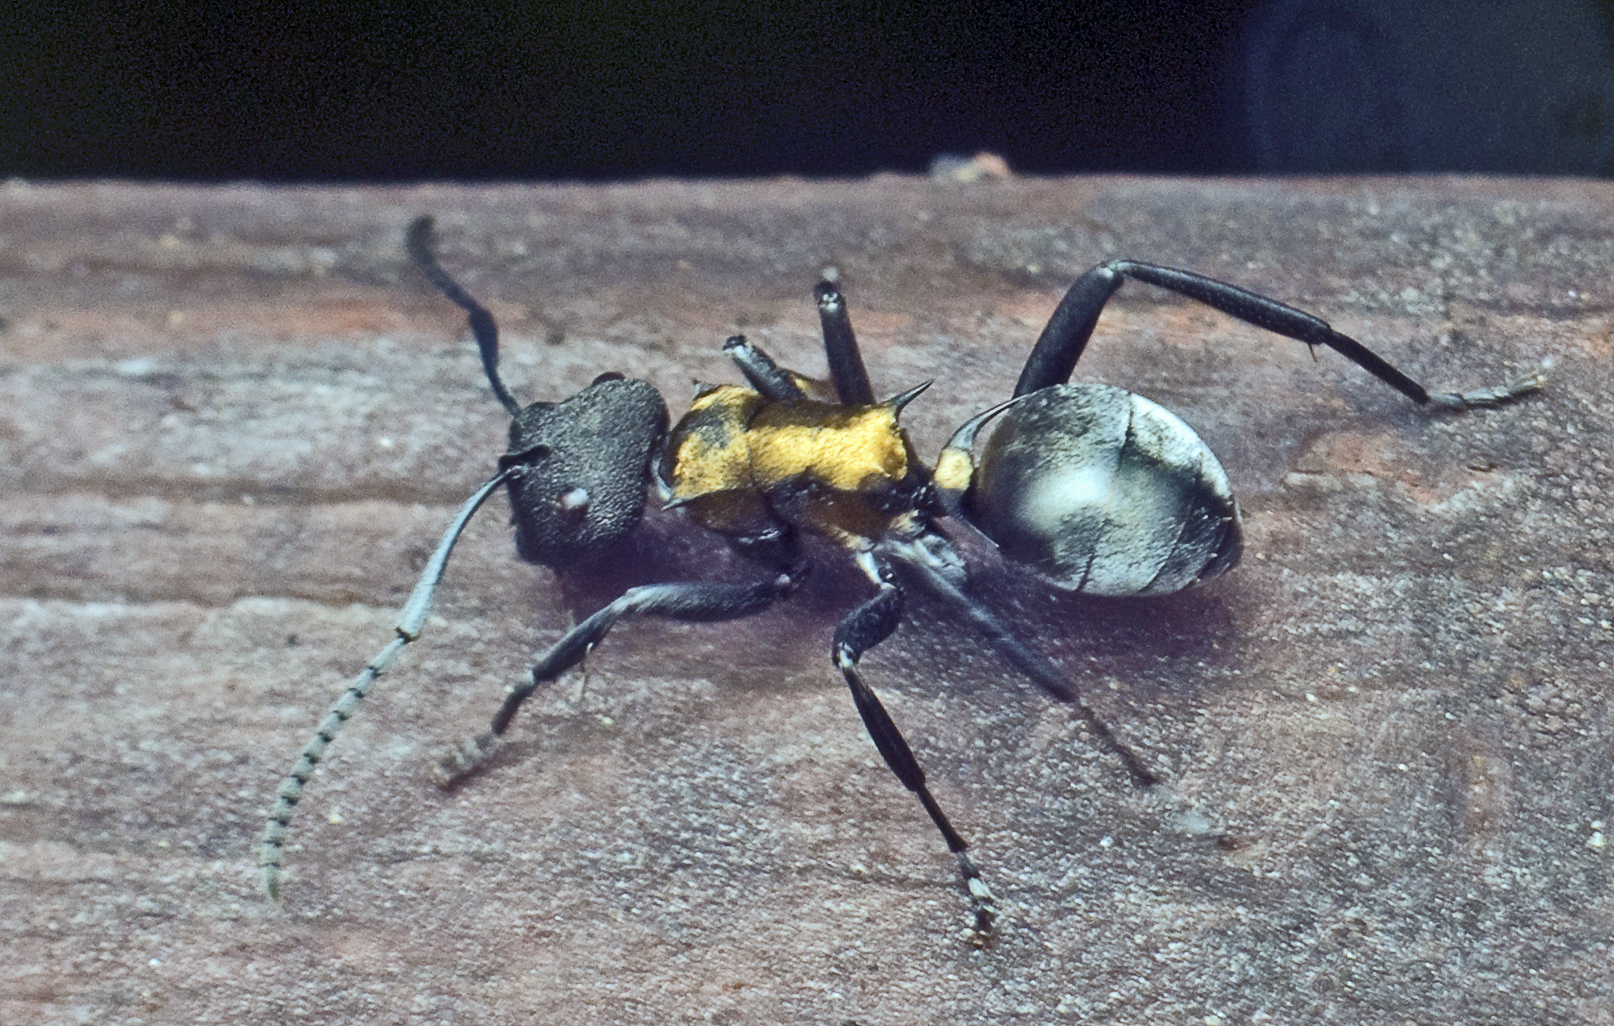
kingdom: Animalia
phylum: Arthropoda
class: Insecta
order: Hymenoptera
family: Formicidae
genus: Polyrhachis
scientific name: Polyrhachis ornata
